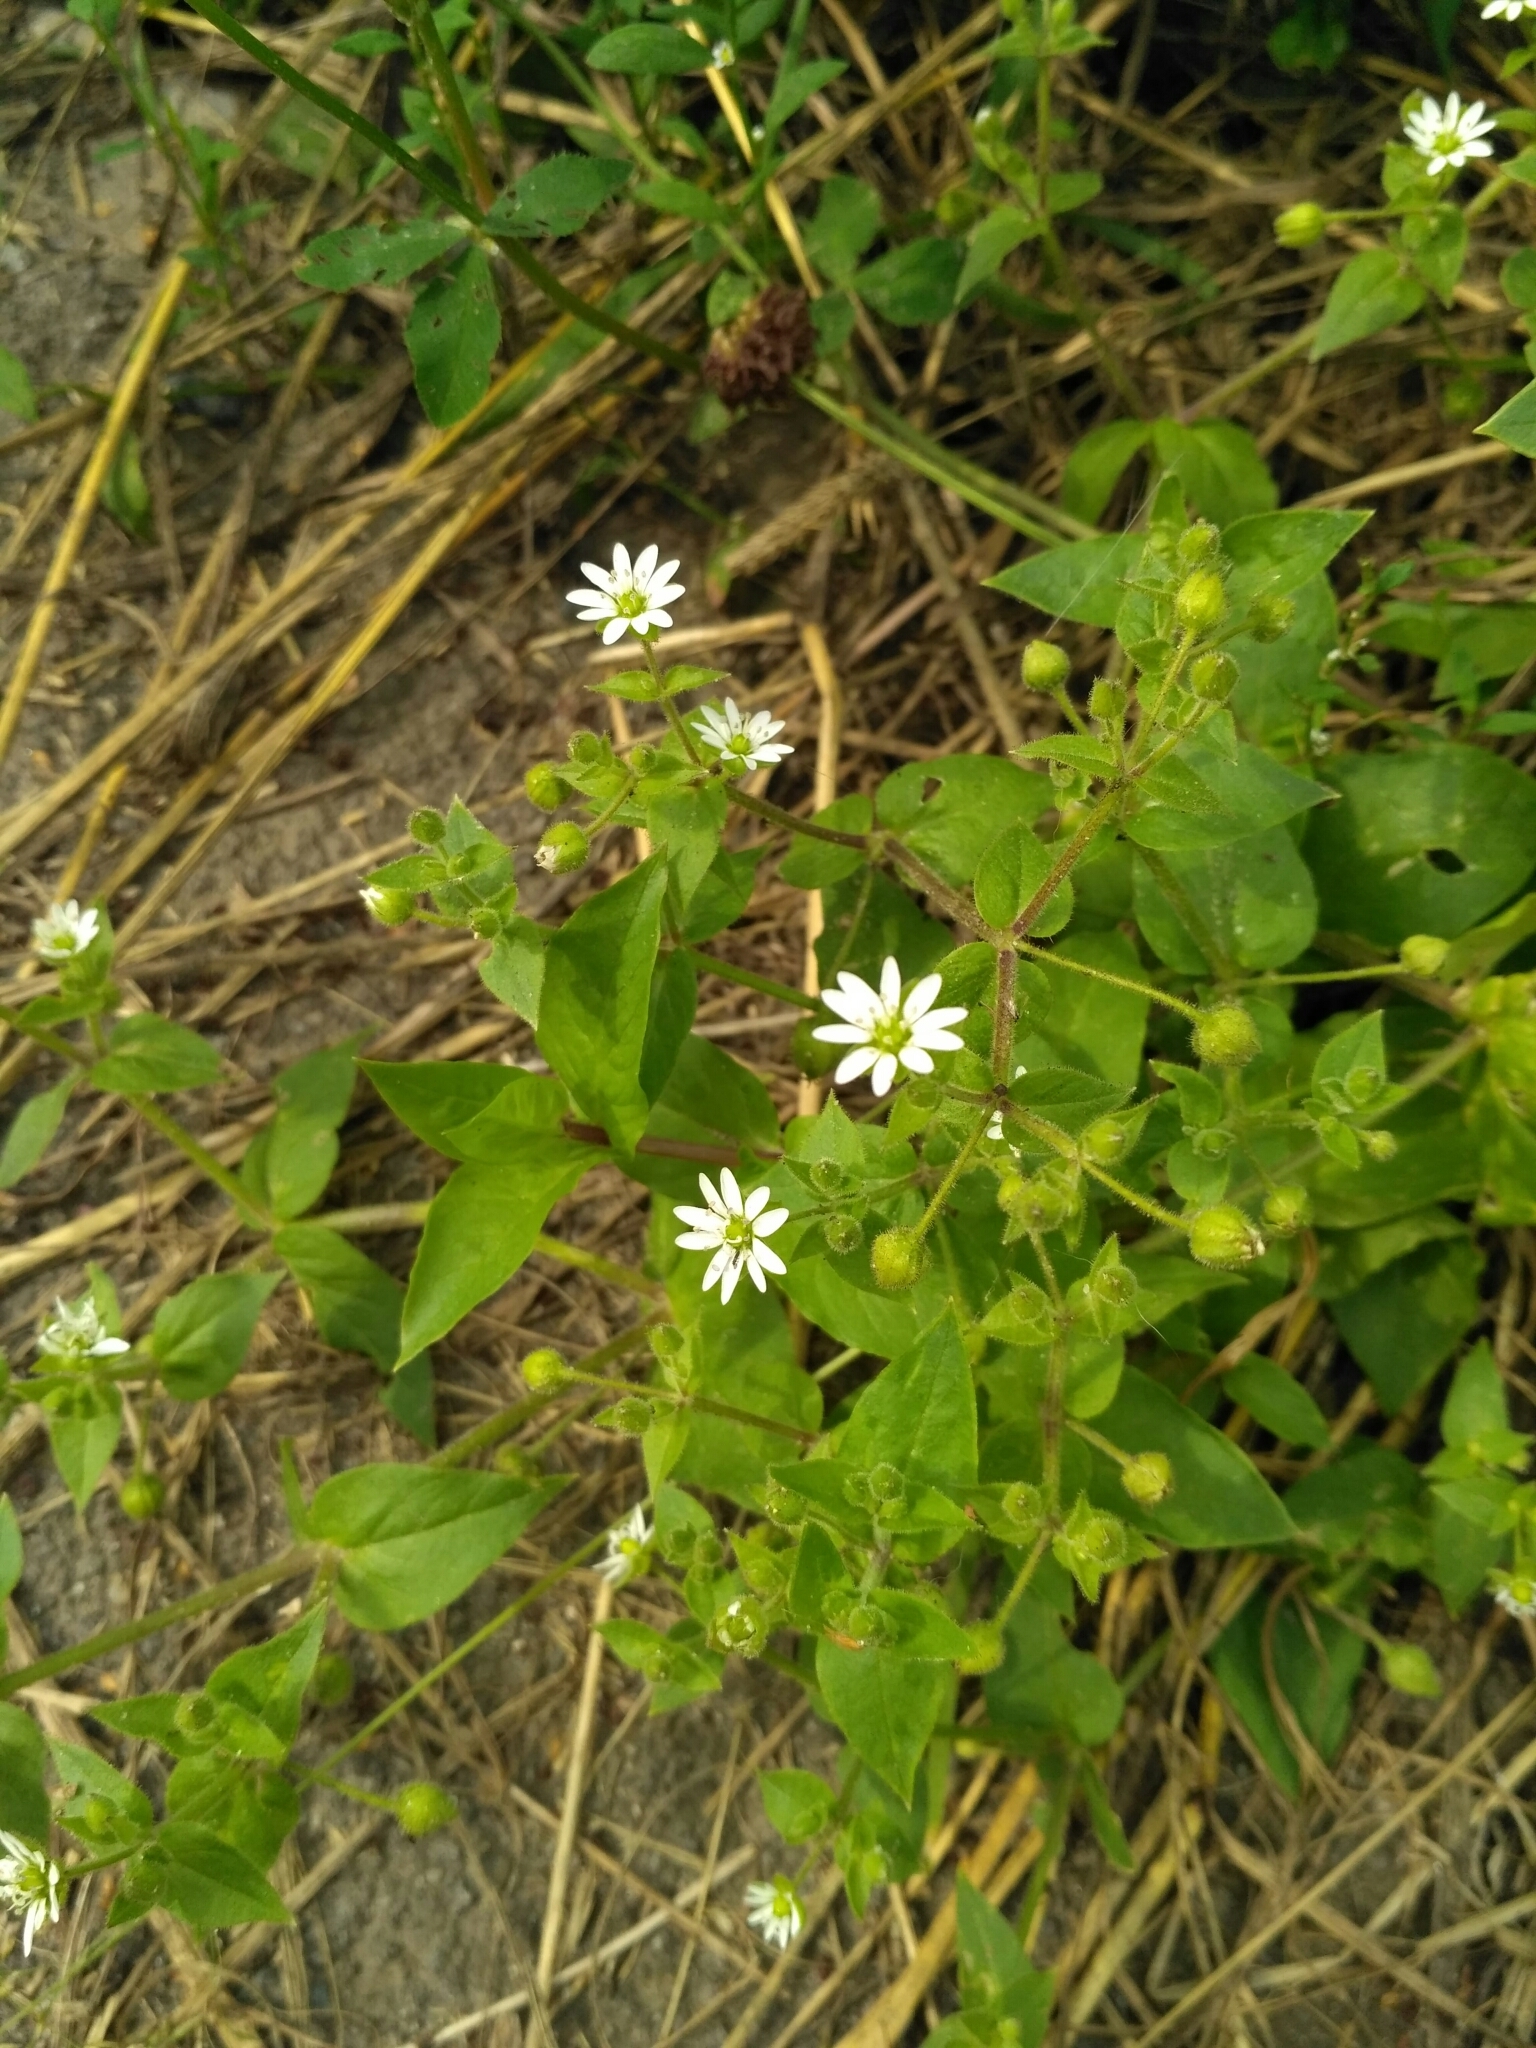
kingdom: Plantae
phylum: Tracheophyta
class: Magnoliopsida
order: Caryophyllales
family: Caryophyllaceae
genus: Stellaria
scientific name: Stellaria aquatica
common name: Water chickweed
